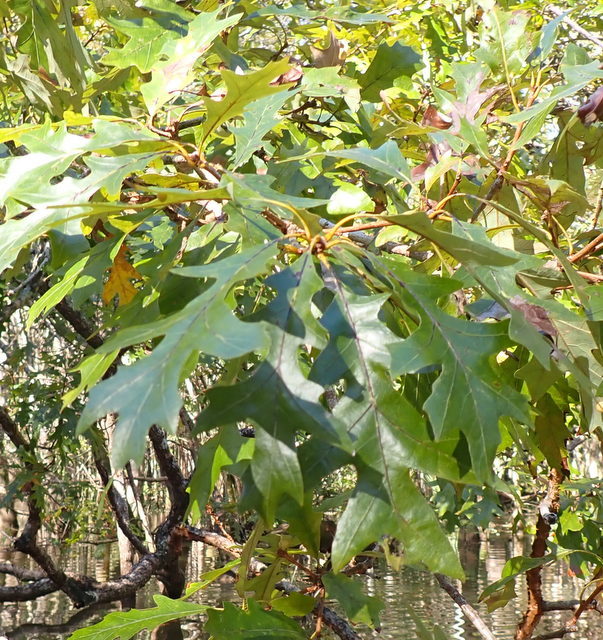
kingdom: Plantae
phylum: Tracheophyta
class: Magnoliopsida
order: Fagales
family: Fagaceae
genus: Quercus
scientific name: Quercus lyrata
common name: Overcup oak
